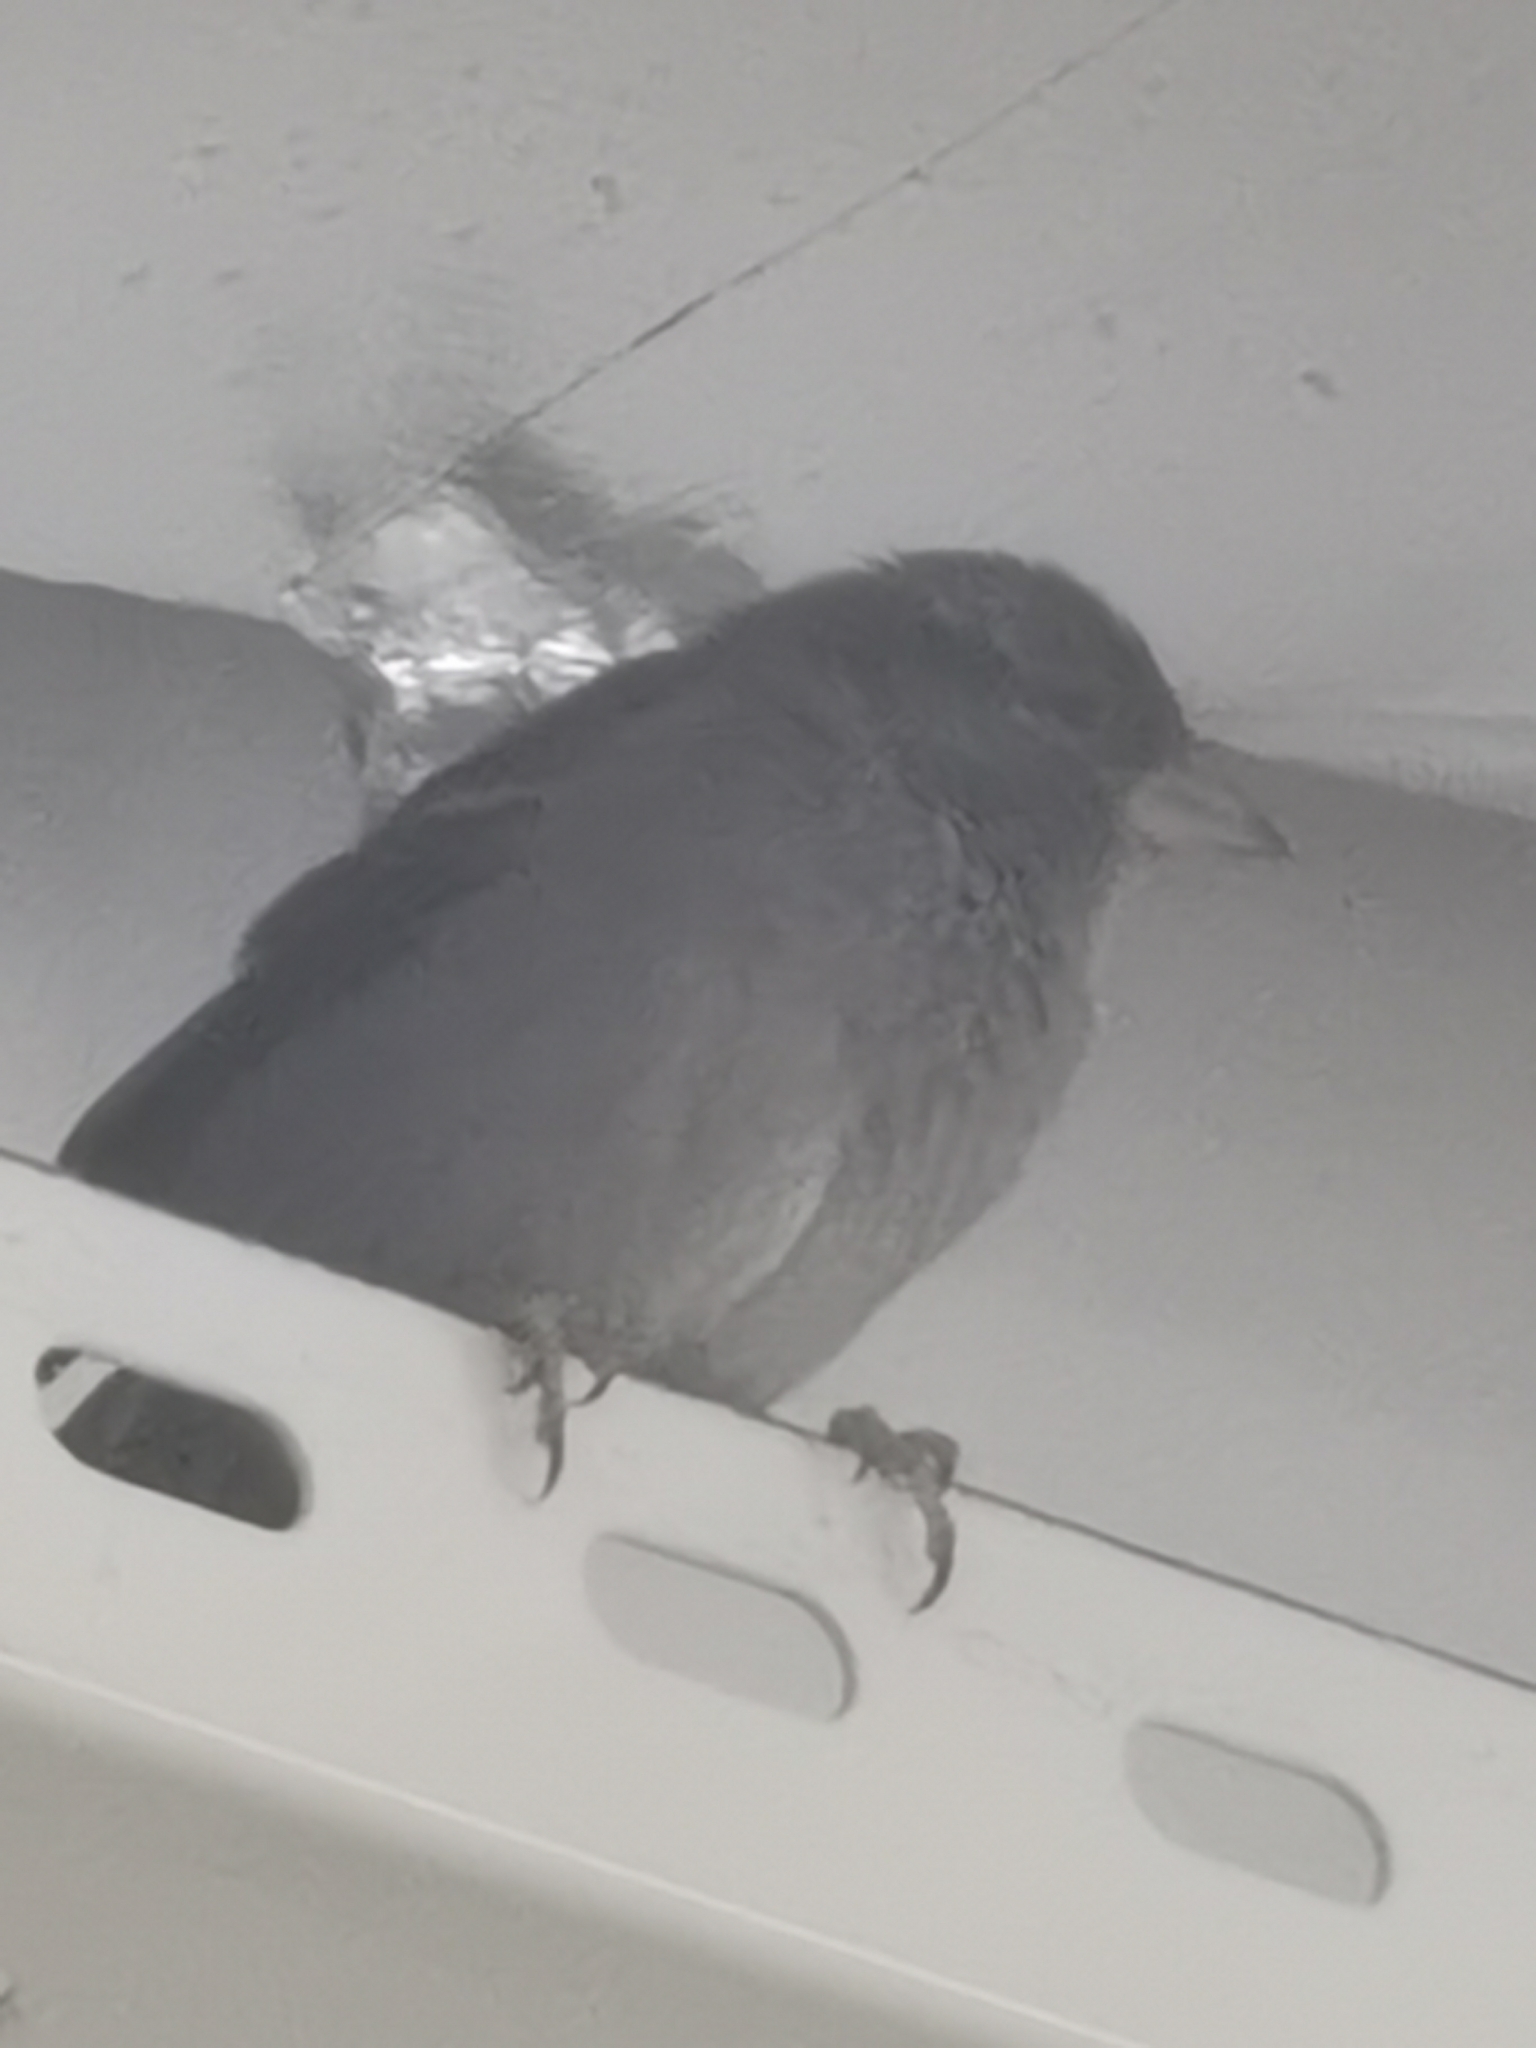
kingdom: Animalia
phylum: Chordata
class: Aves
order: Passeriformes
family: Passeridae
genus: Passer
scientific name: Passer domesticus
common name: House sparrow
